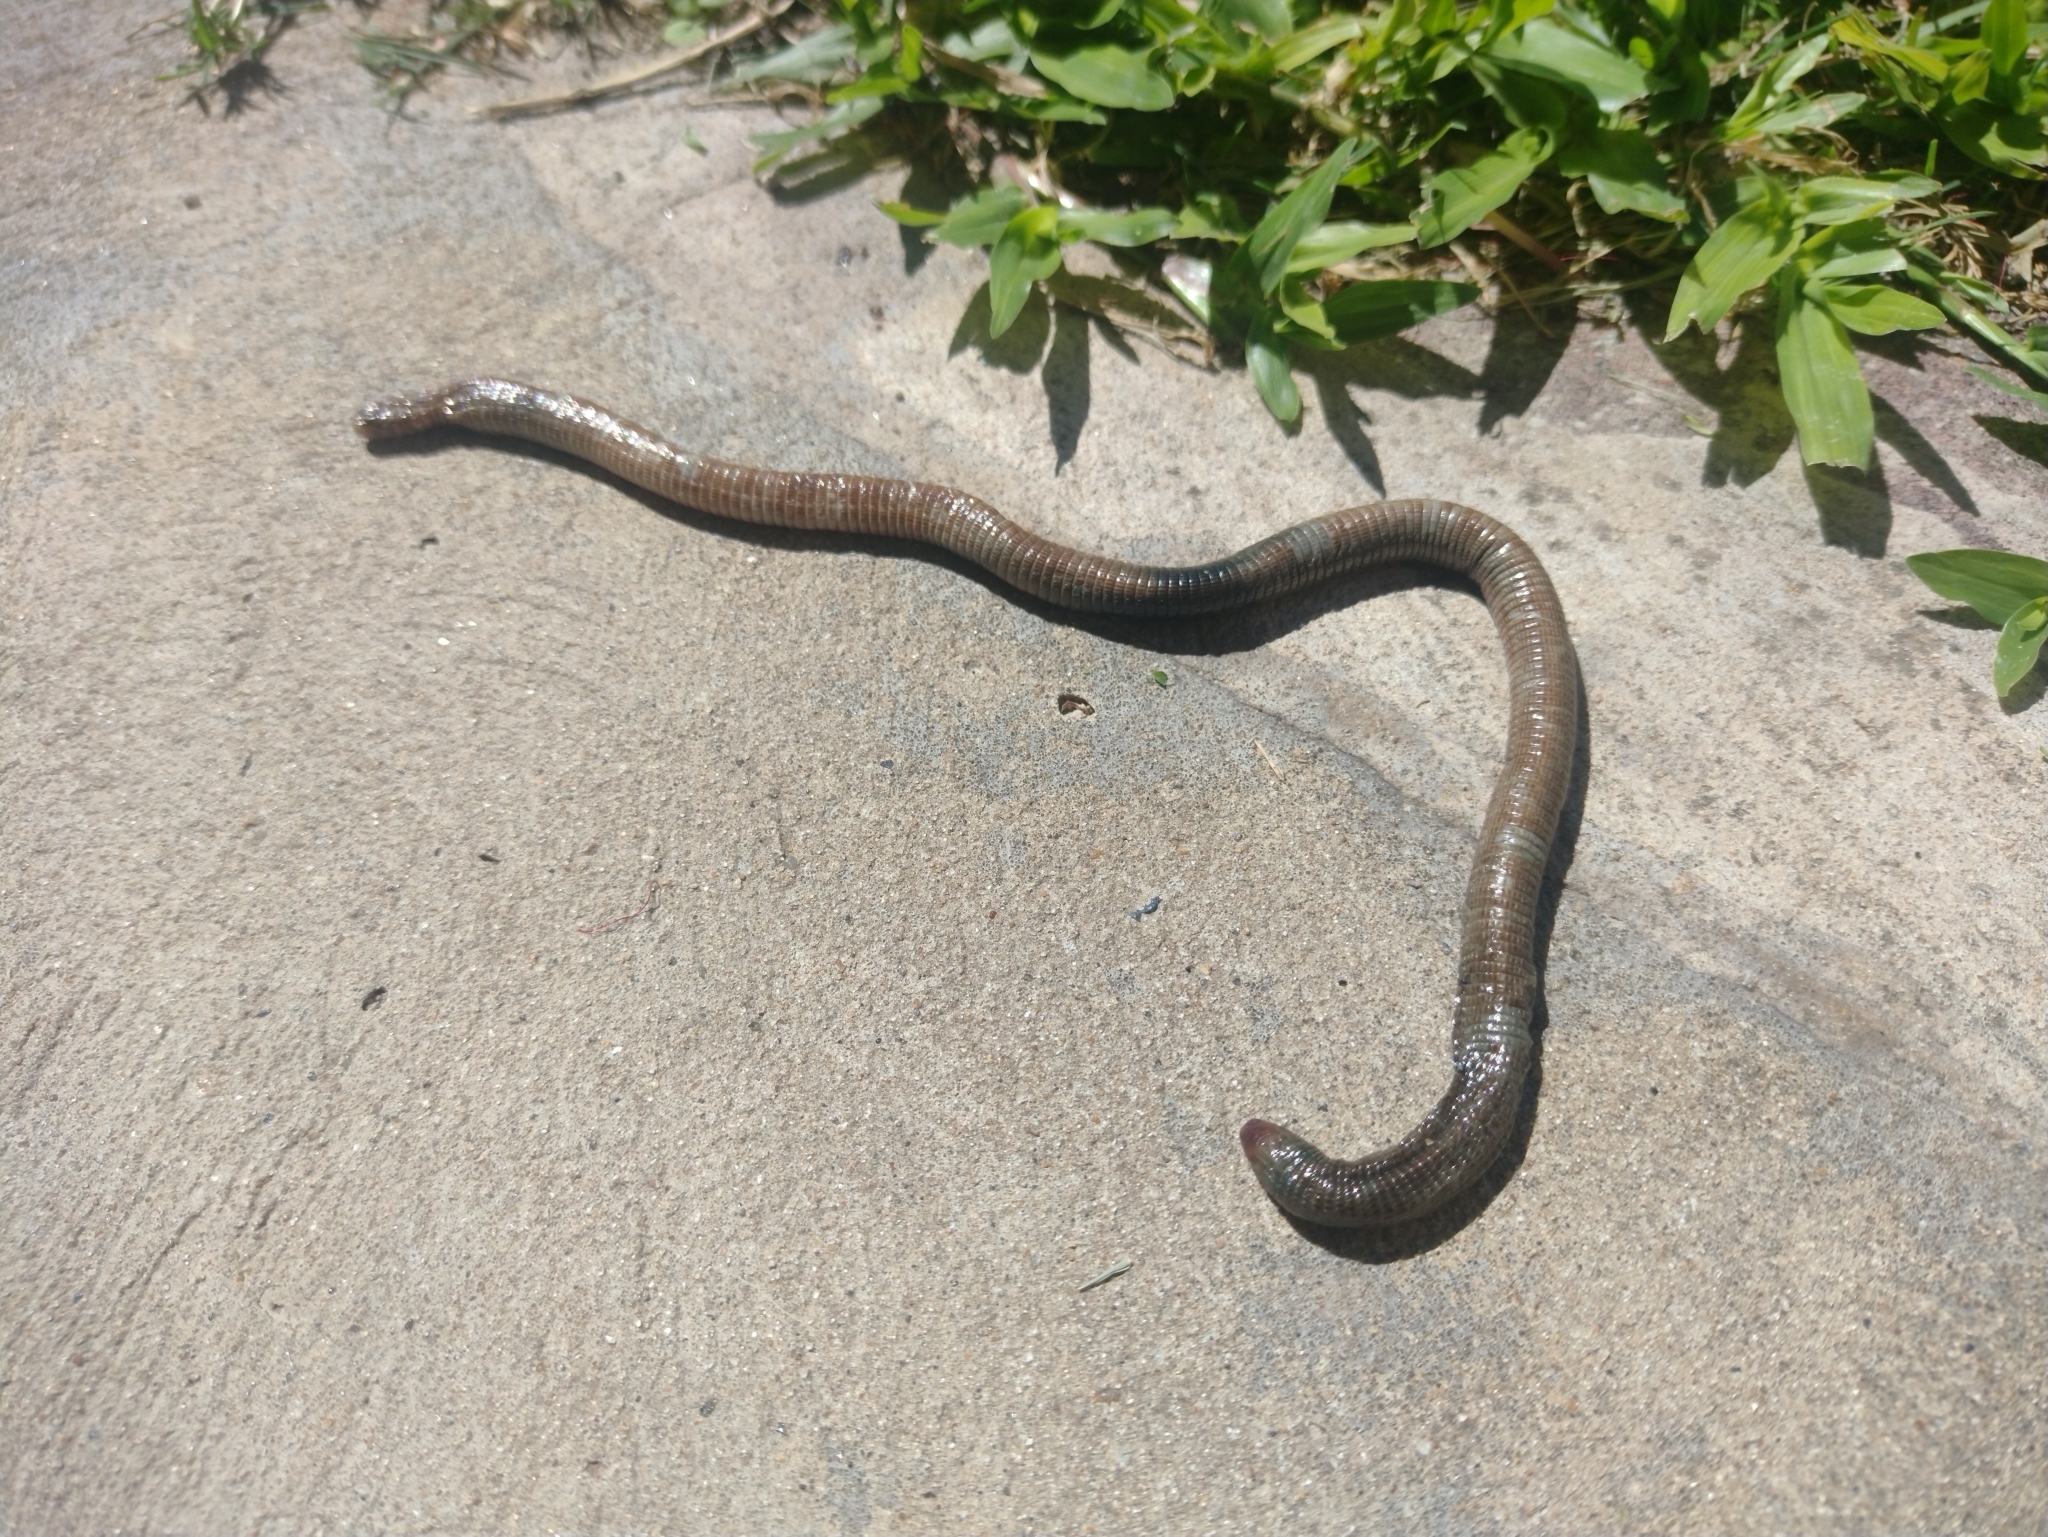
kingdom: Animalia
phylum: Chordata
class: Squamata
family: Amphisbaenidae
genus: Amphisbaena
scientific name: Amphisbaena darwinii
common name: Darwin's ringed worm lizard
